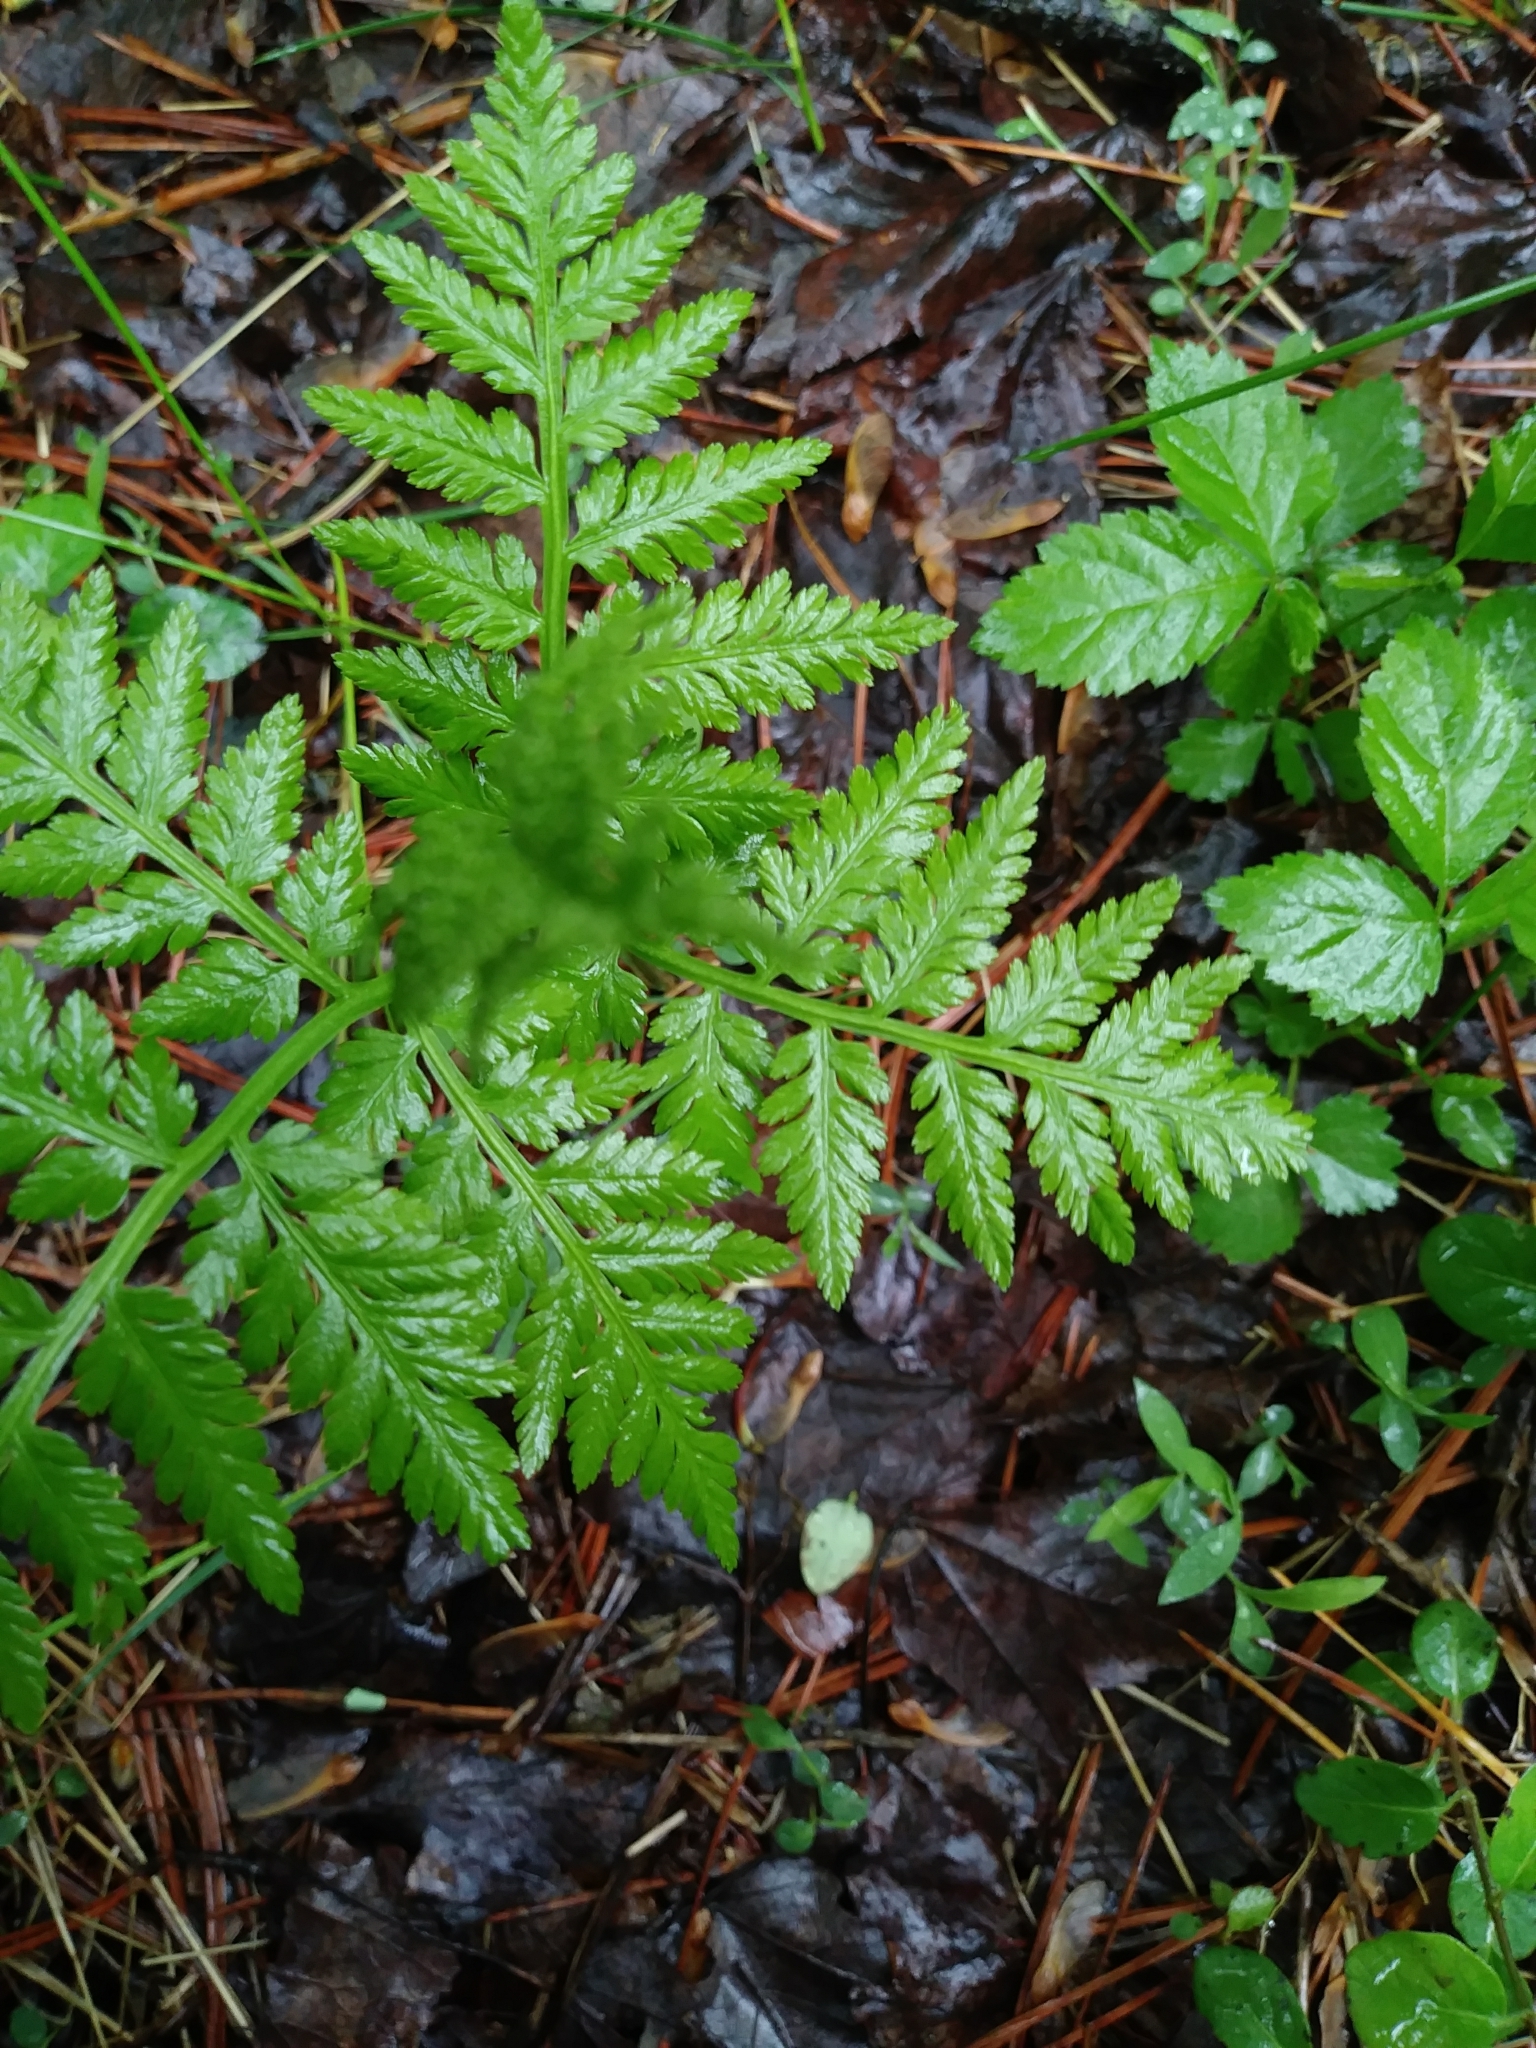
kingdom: Plantae
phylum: Tracheophyta
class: Polypodiopsida
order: Ophioglossales
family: Ophioglossaceae
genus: Botrypus
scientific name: Botrypus virginianus
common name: Common grapefern
